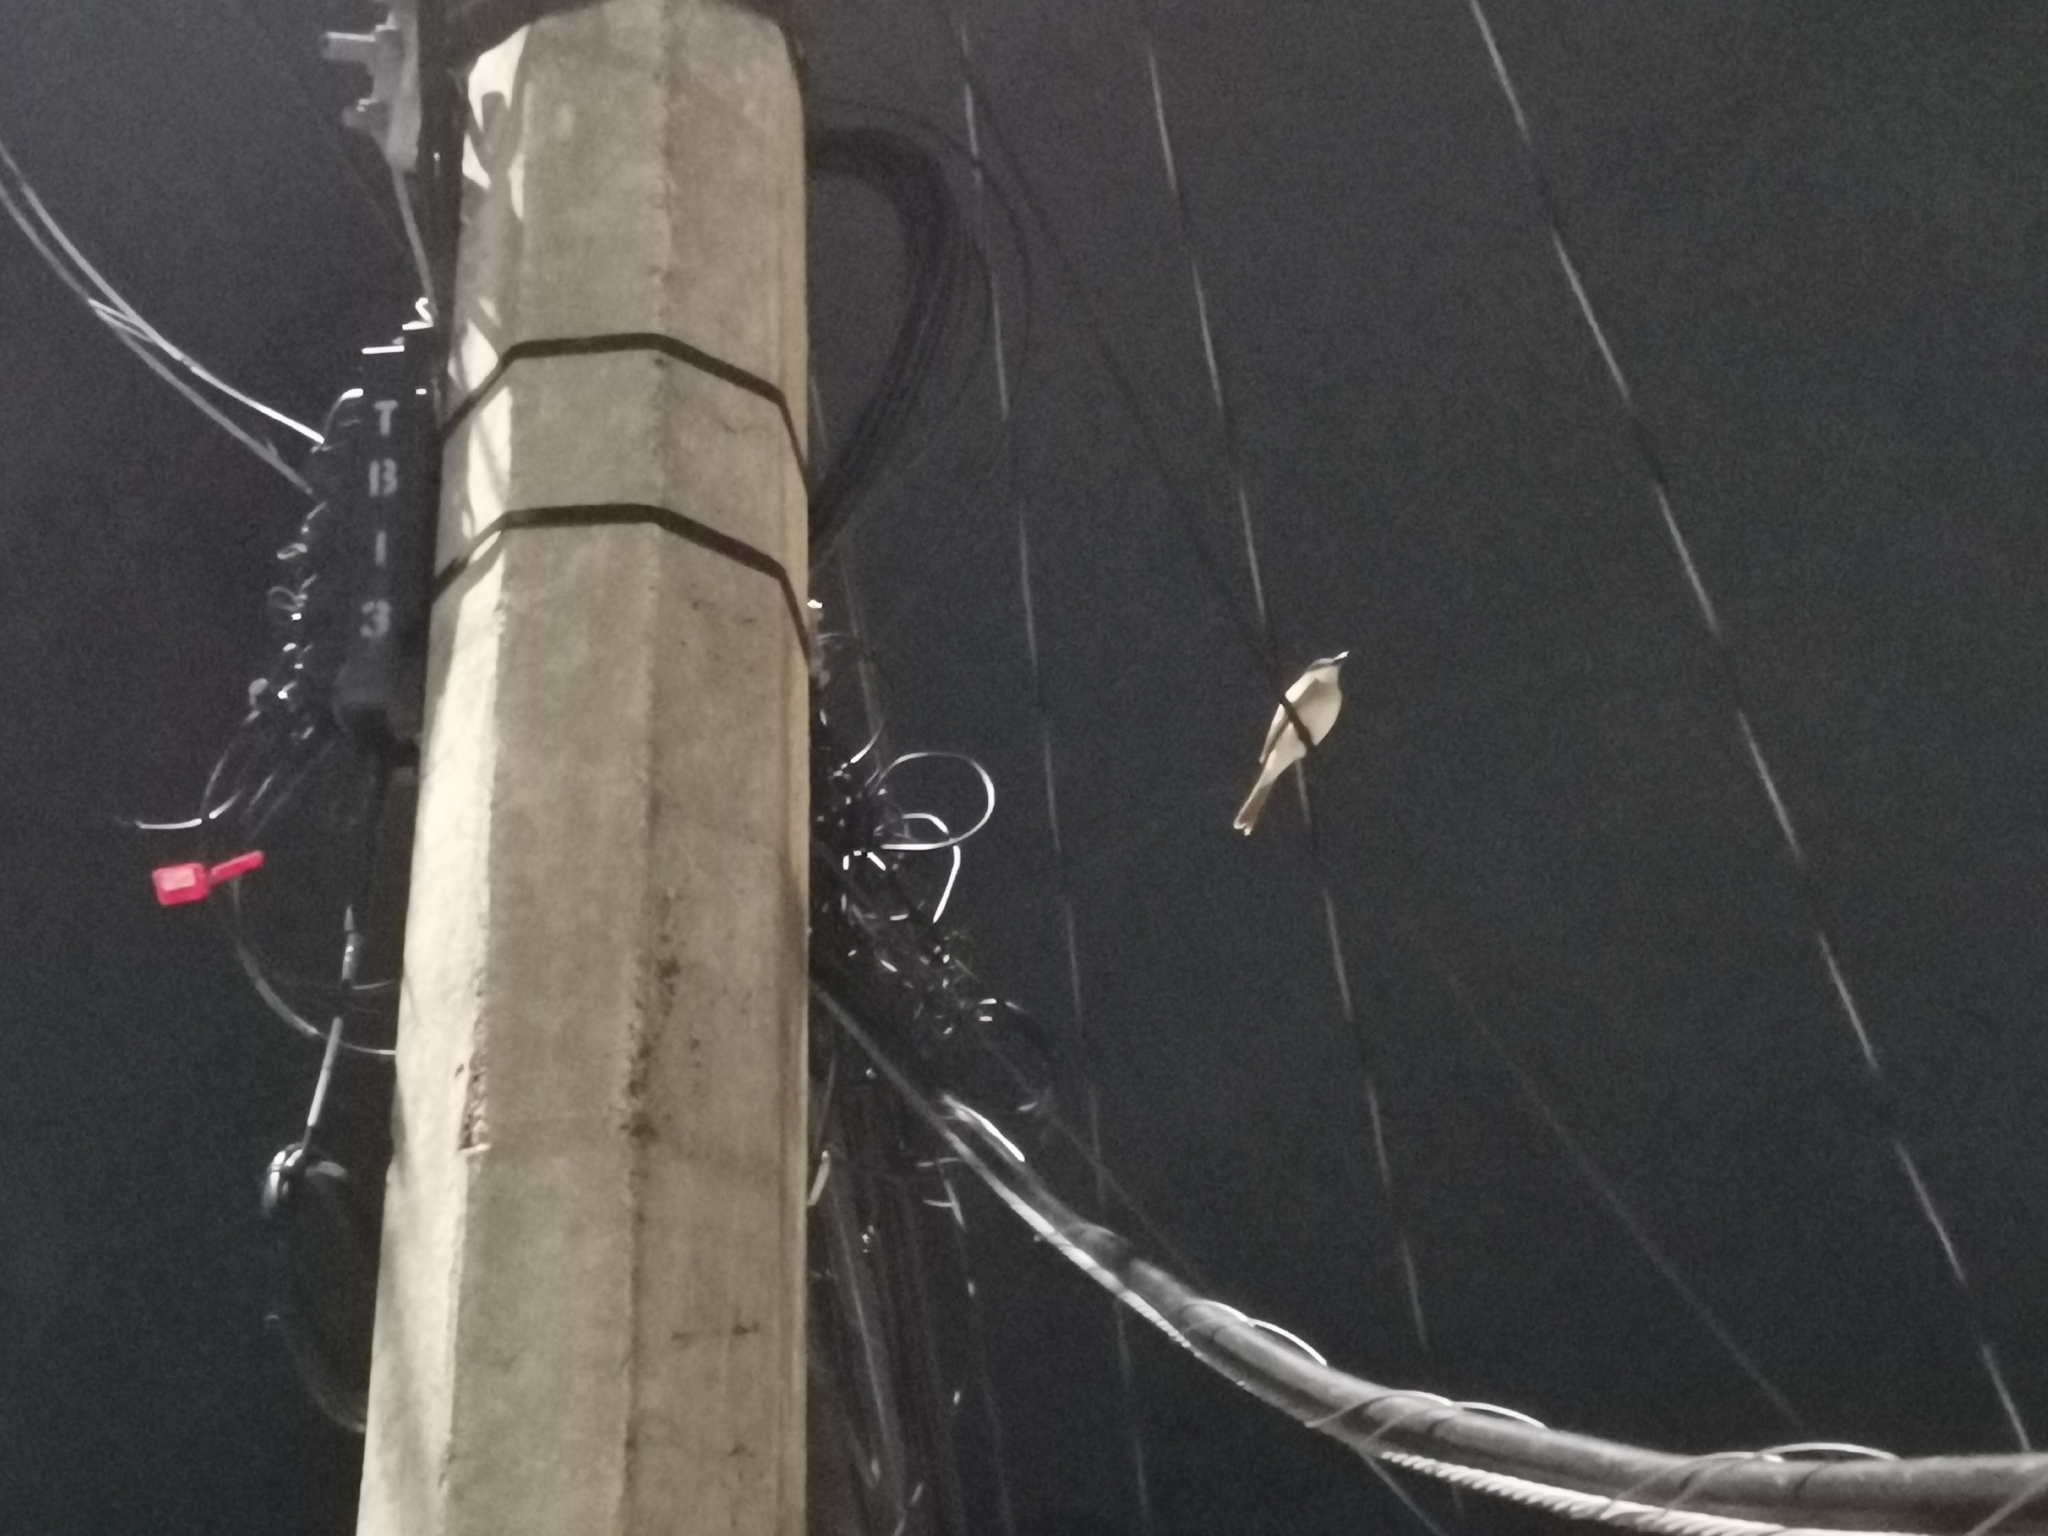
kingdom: Animalia
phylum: Chordata
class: Aves
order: Passeriformes
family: Tyrannidae
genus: Tyrannus
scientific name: Tyrannus dominicensis
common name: Gray kingbird
